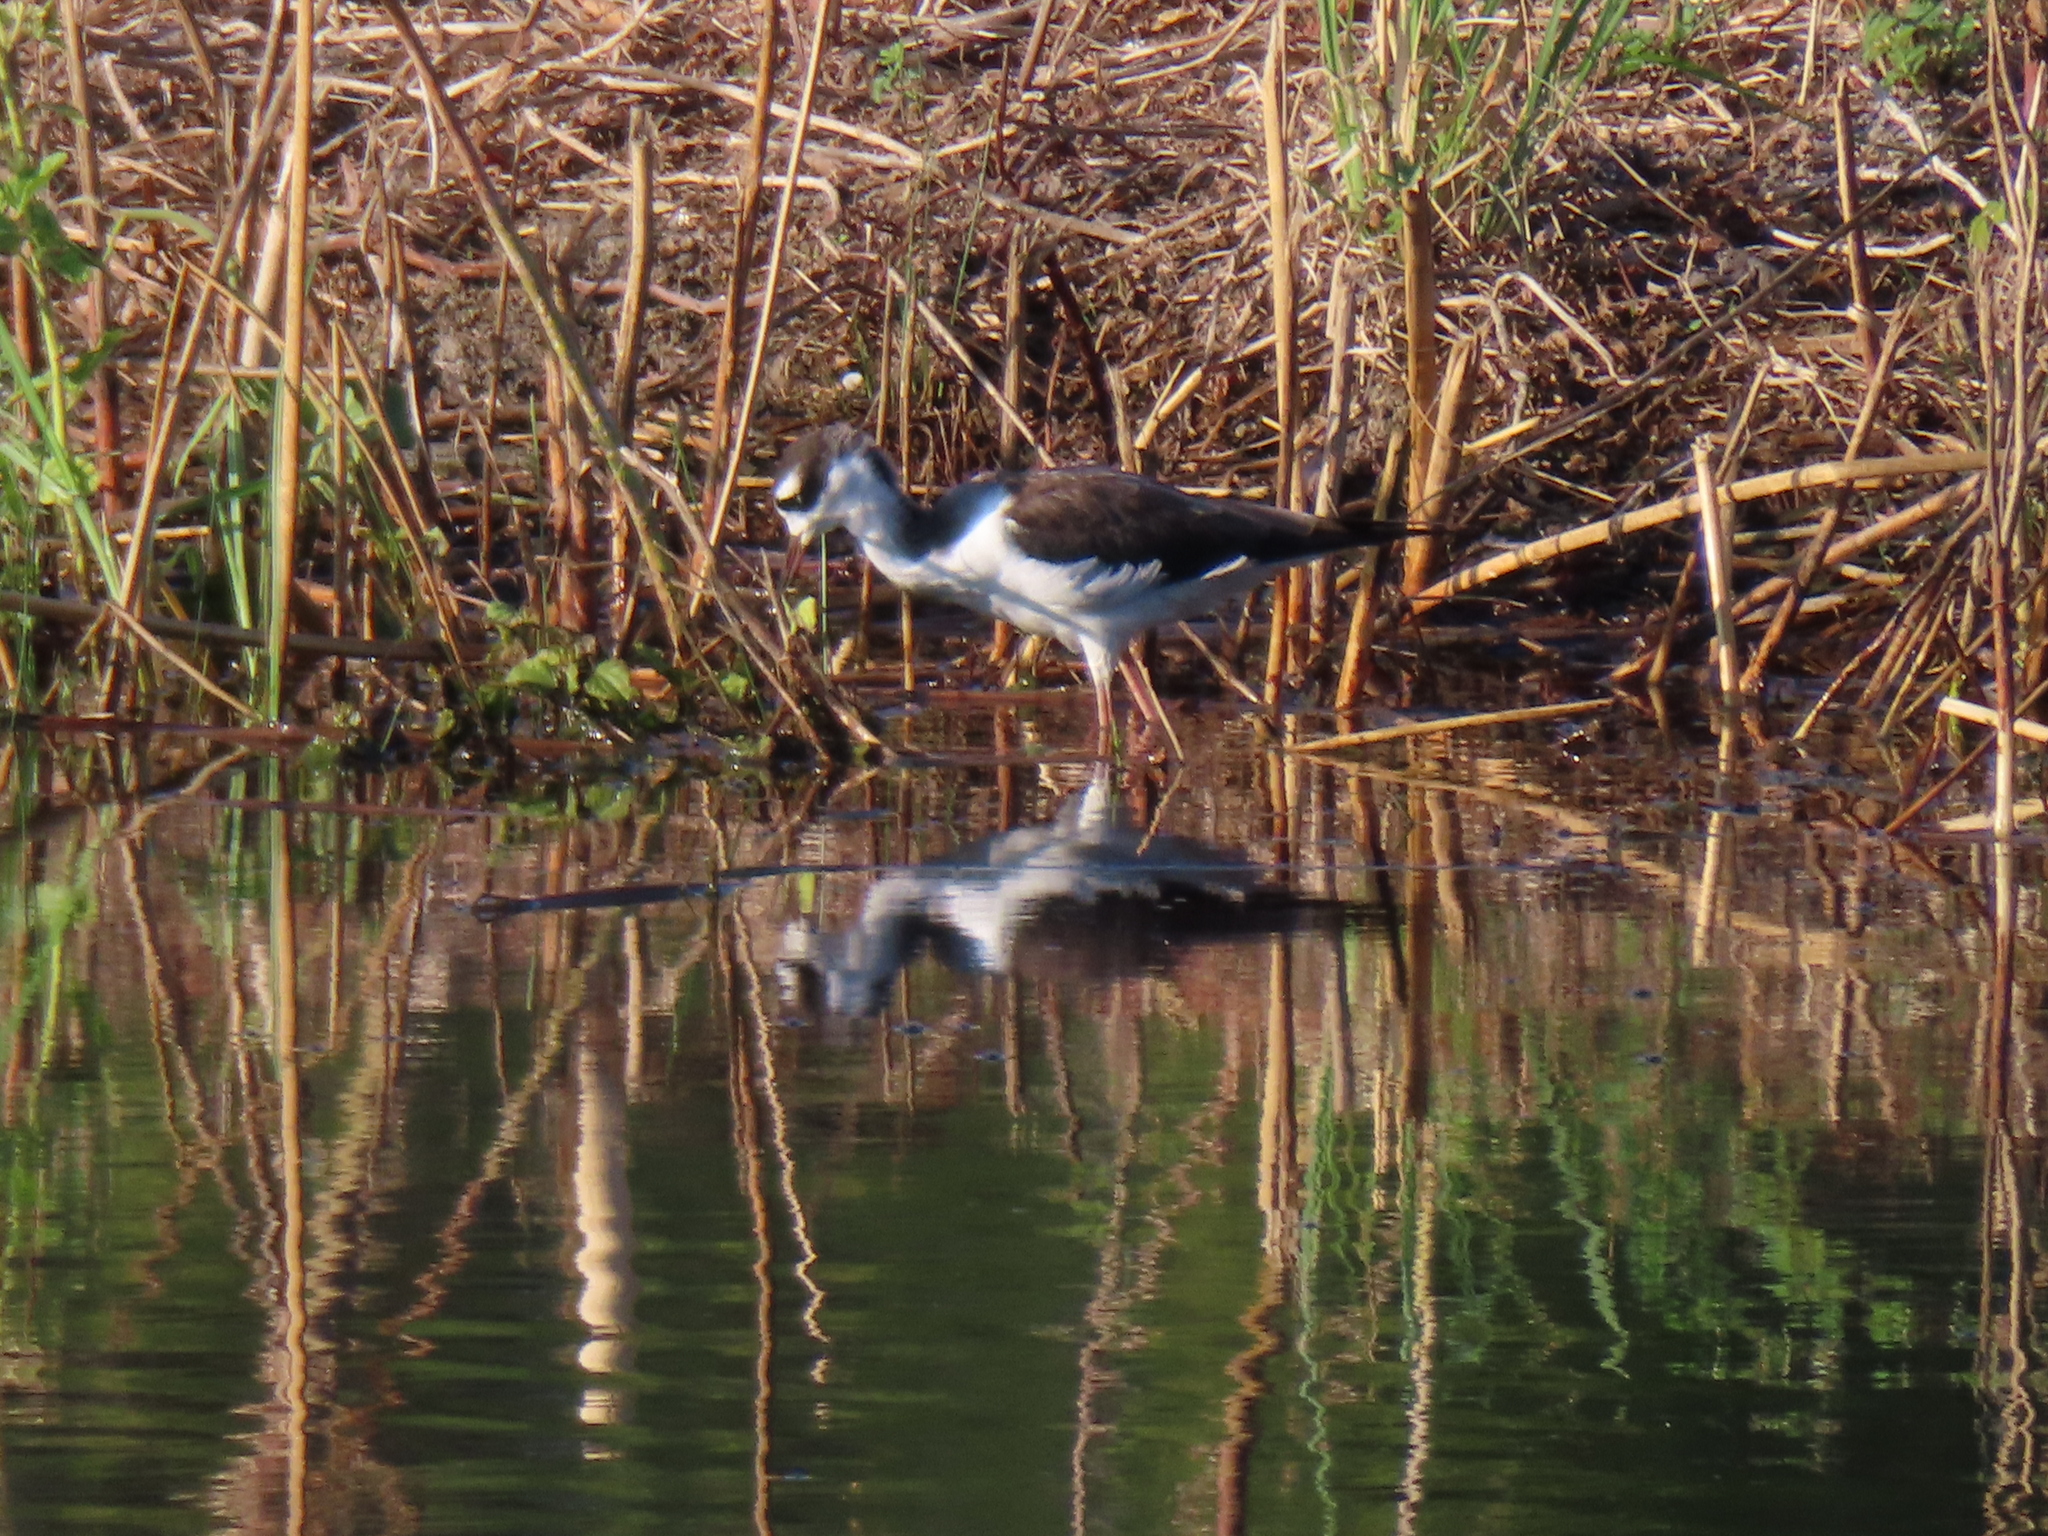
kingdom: Animalia
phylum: Chordata
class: Aves
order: Charadriiformes
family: Recurvirostridae
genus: Himantopus
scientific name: Himantopus mexicanus
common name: Black-necked stilt
